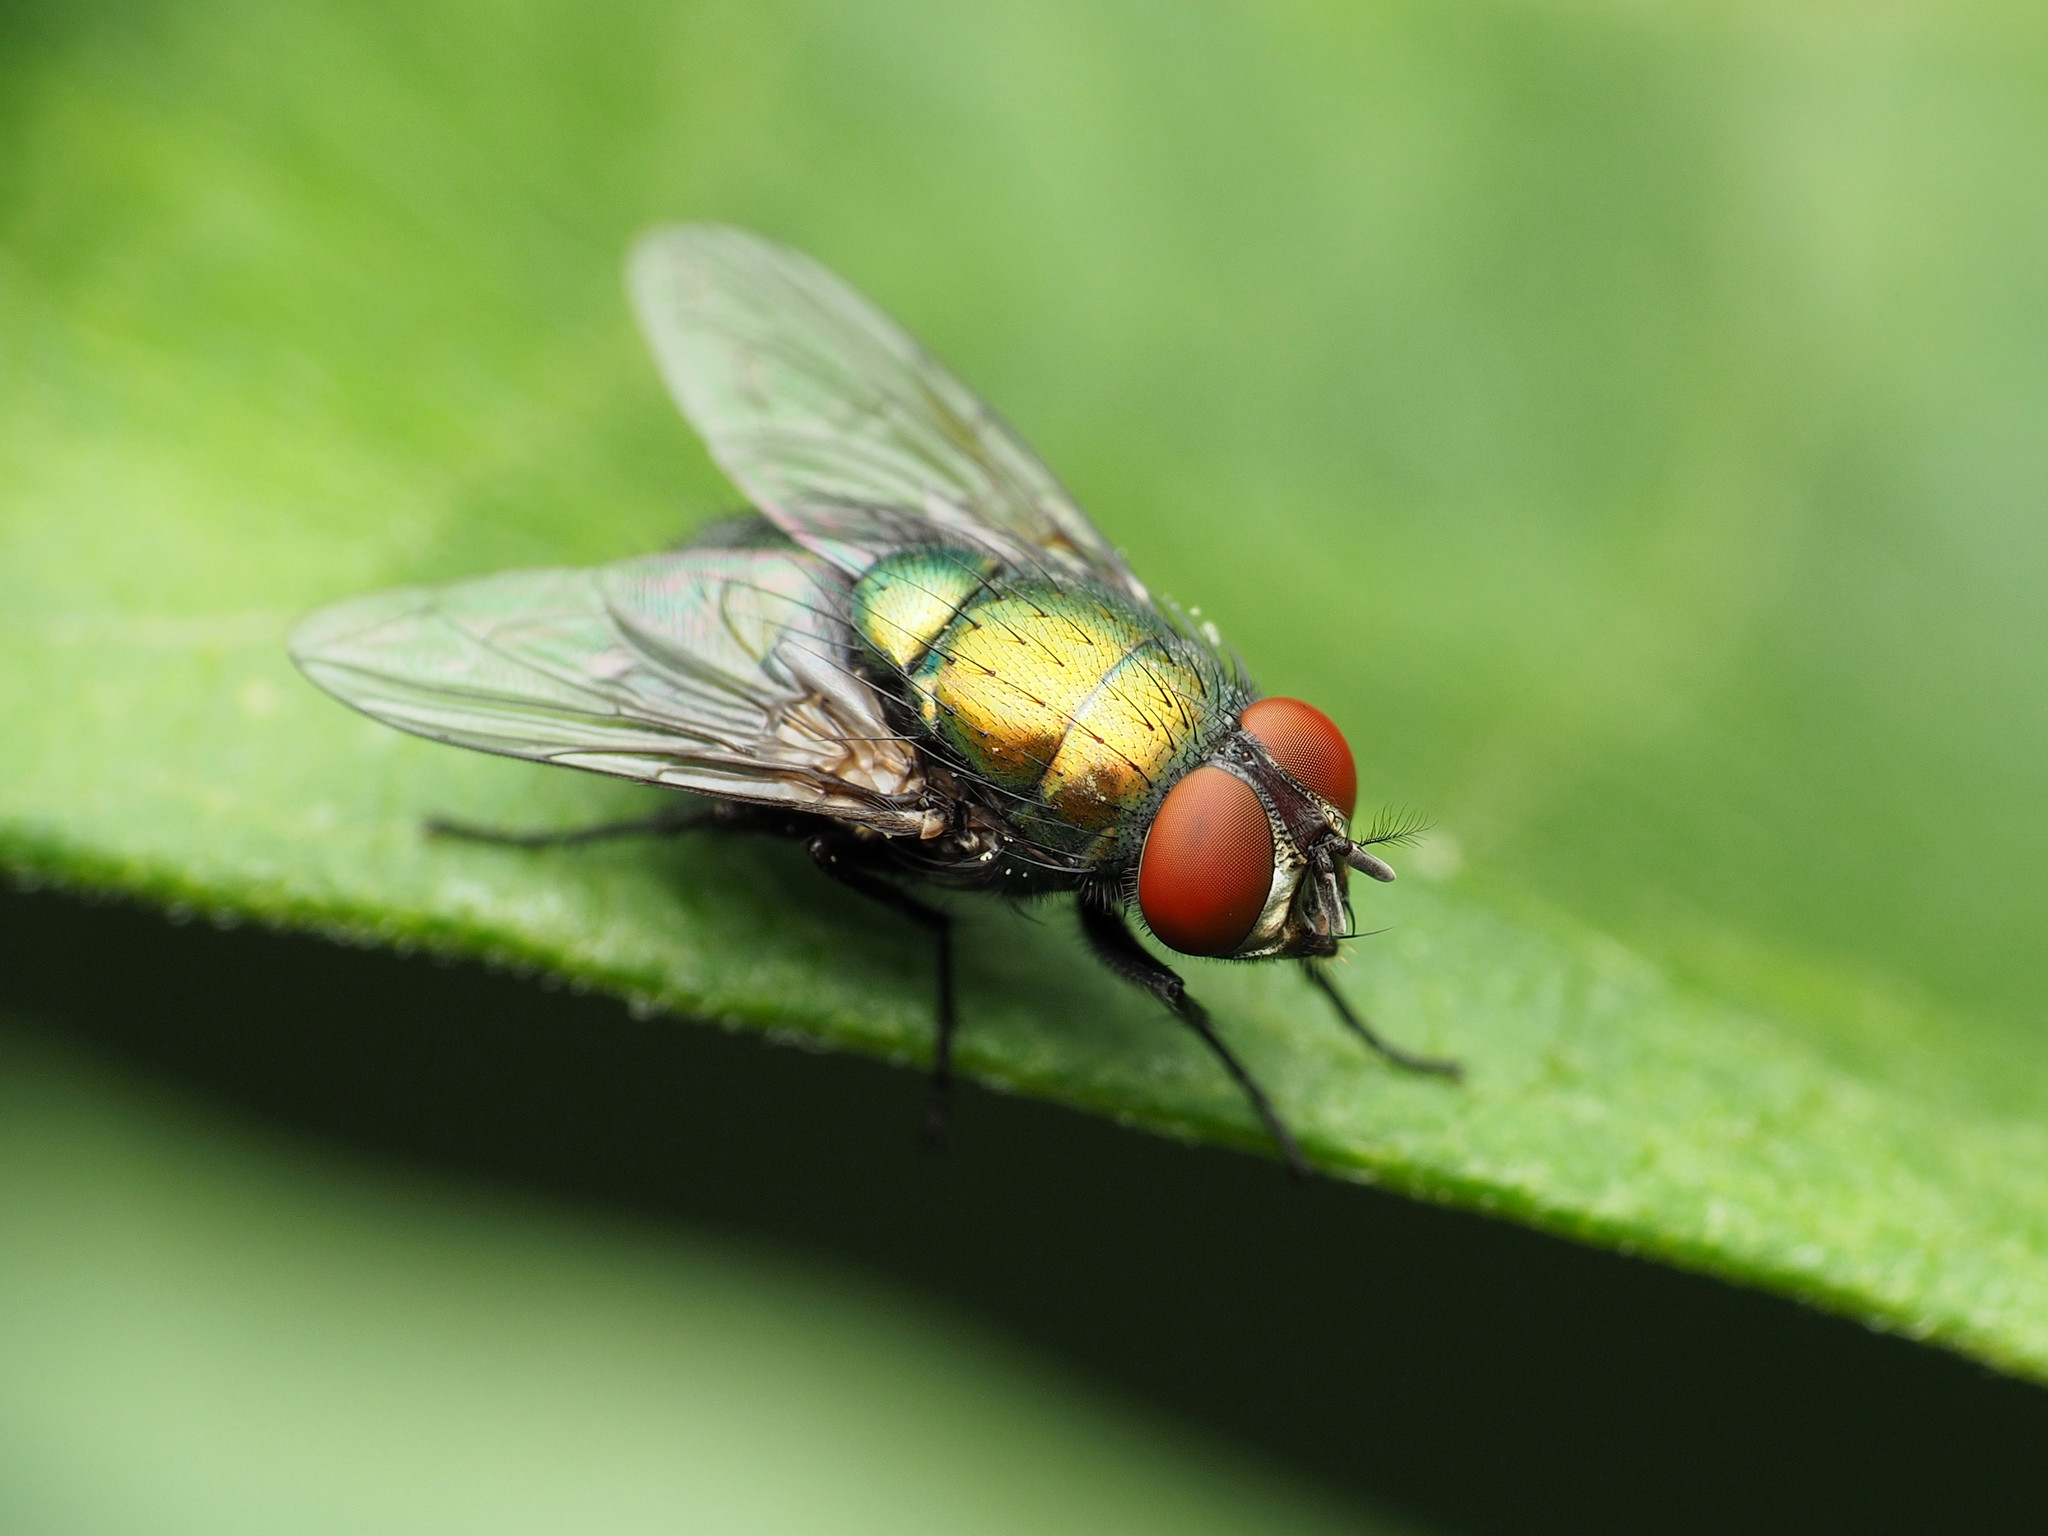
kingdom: Animalia
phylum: Arthropoda
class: Insecta
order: Diptera
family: Calliphoridae
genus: Lucilia
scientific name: Lucilia sericata
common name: Blow fly
